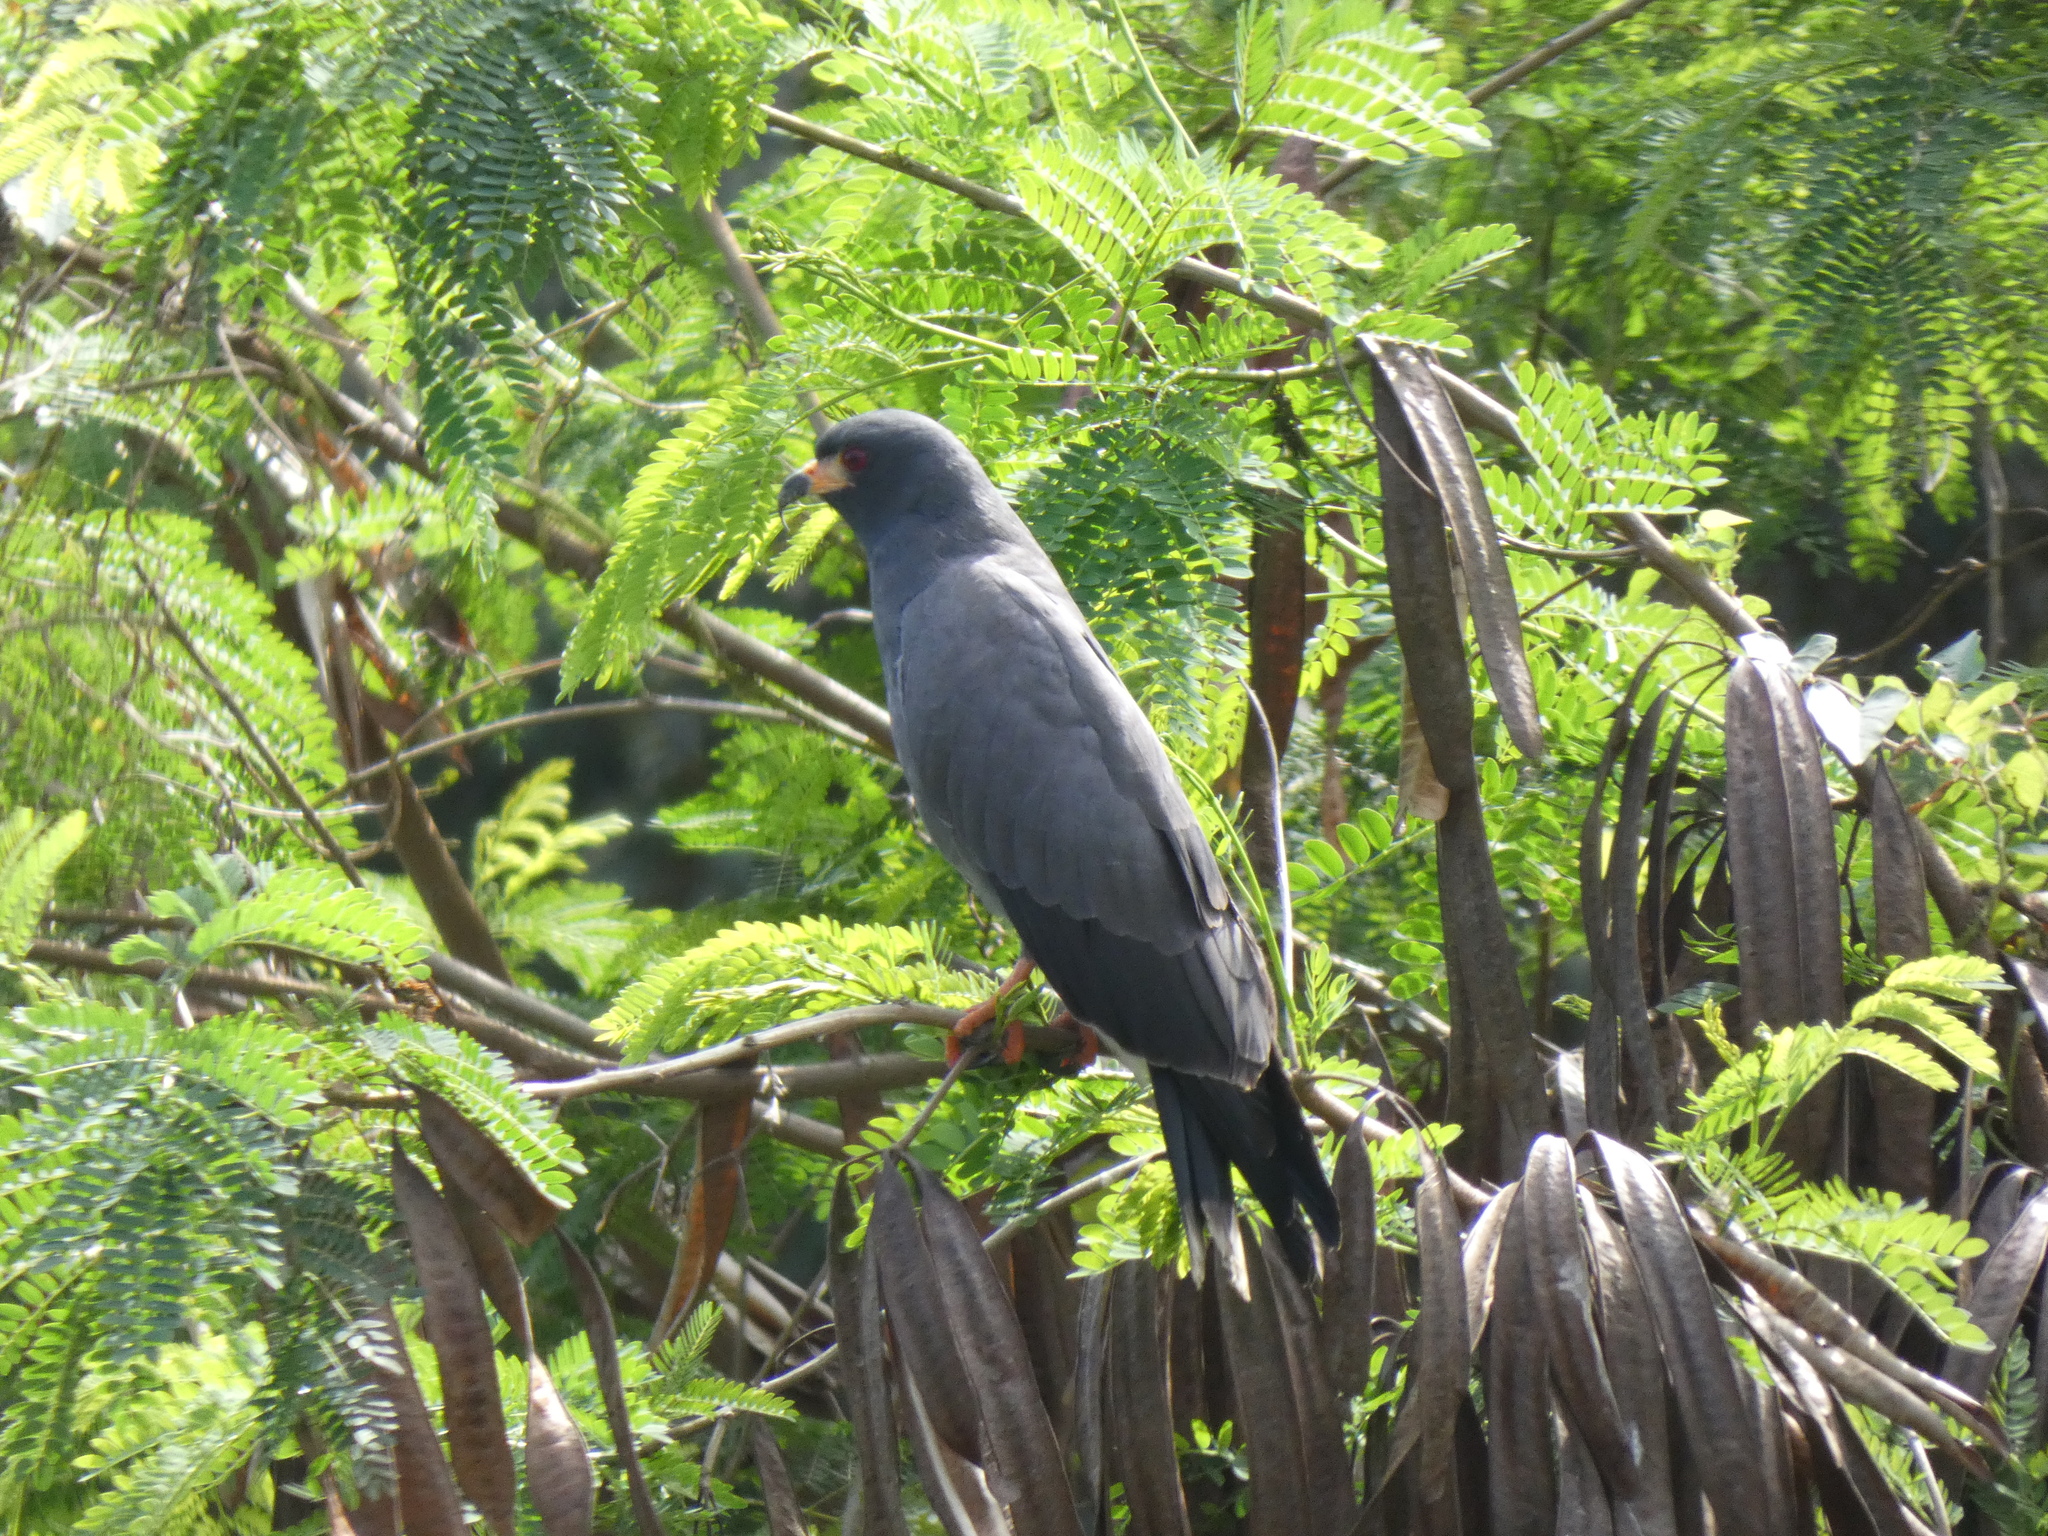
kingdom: Animalia
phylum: Chordata
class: Aves
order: Accipitriformes
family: Accipitridae
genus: Rostrhamus
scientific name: Rostrhamus sociabilis
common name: Snail kite
